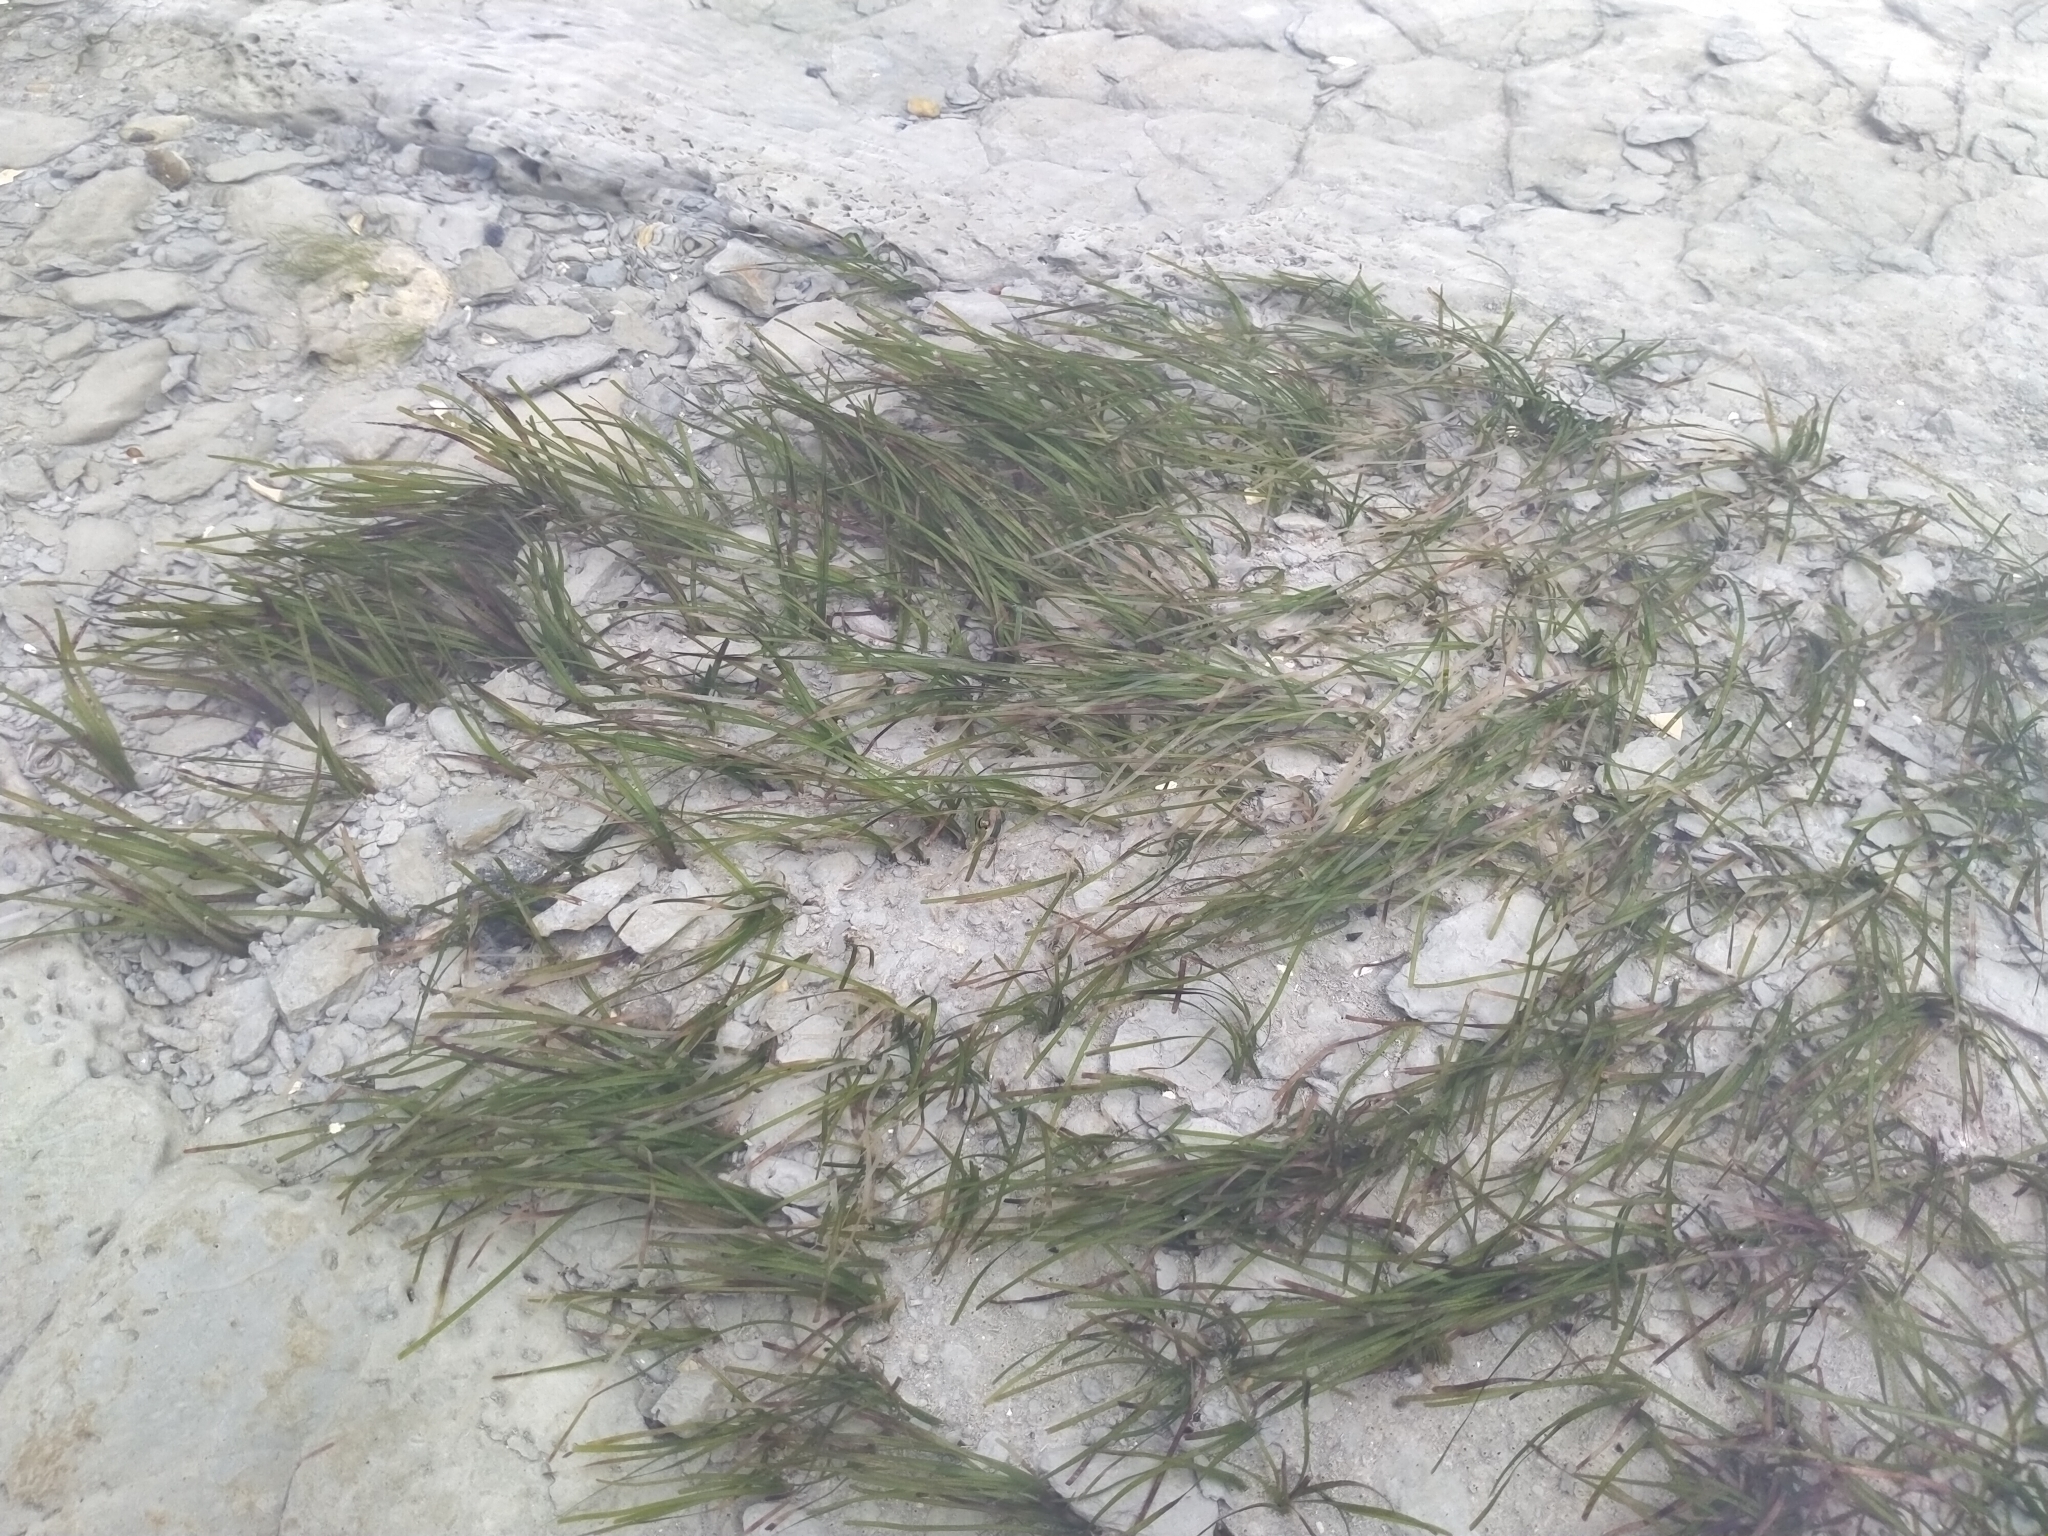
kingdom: Plantae
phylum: Tracheophyta
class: Liliopsida
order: Alismatales
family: Zosteraceae
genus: Zostera
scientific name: Zostera novazelandica
